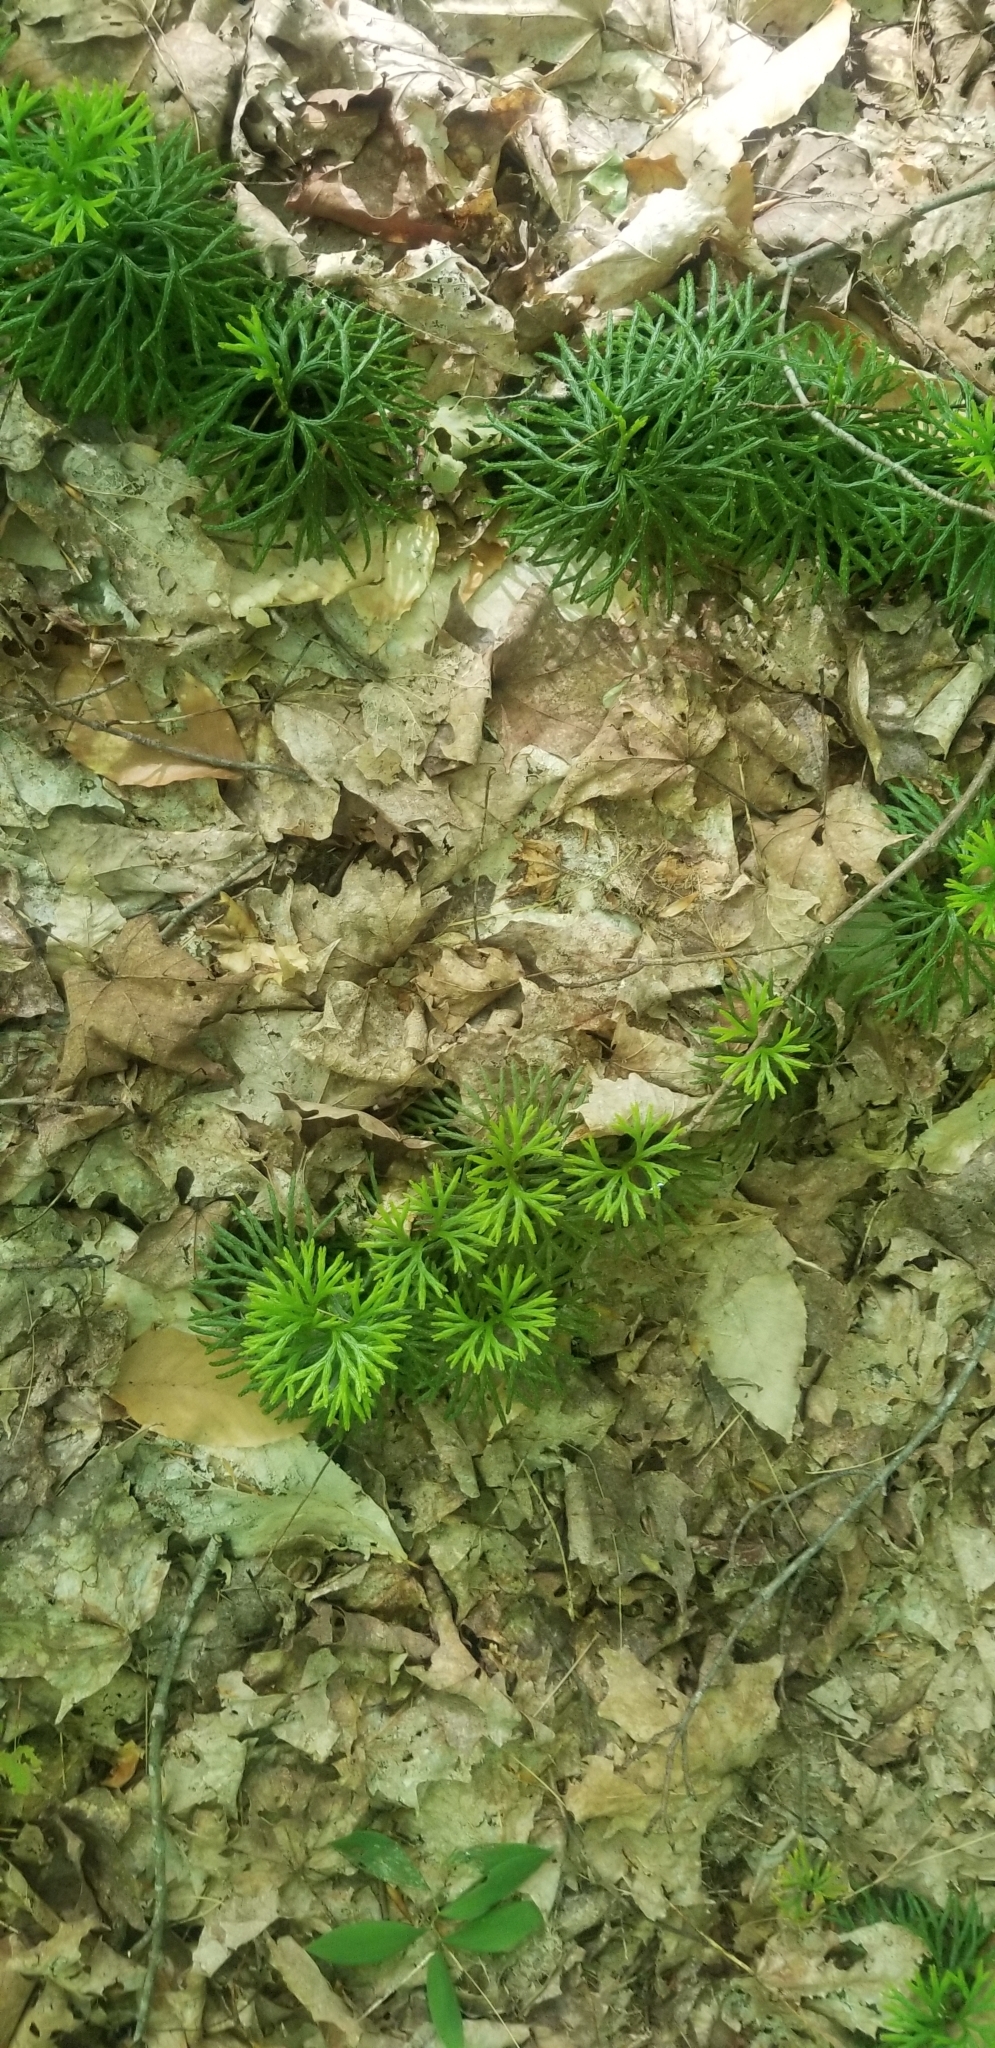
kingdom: Plantae
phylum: Tracheophyta
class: Lycopodiopsida
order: Lycopodiales
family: Lycopodiaceae
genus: Diphasiastrum
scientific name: Diphasiastrum digitatum
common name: Southern running-pine
